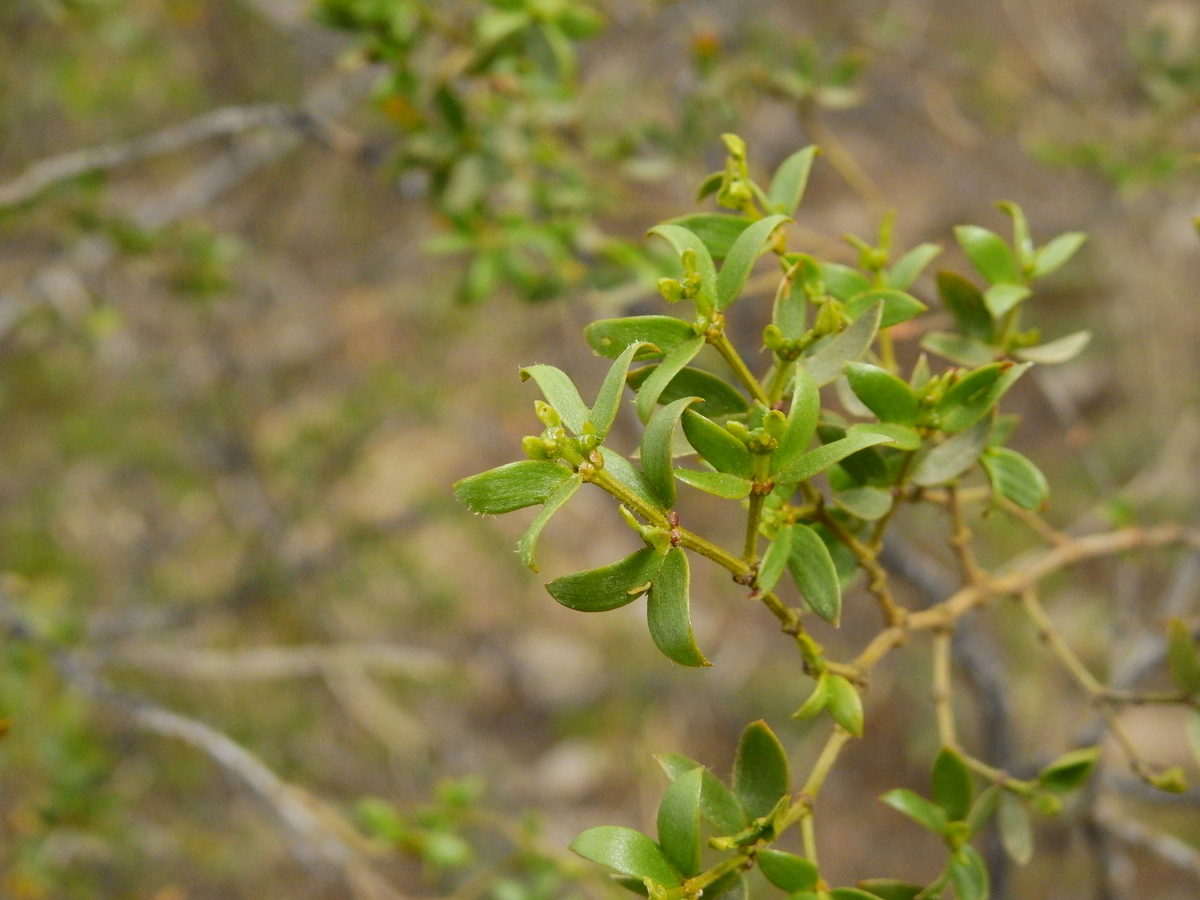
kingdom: Plantae
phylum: Tracheophyta
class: Magnoliopsida
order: Zygophyllales
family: Zygophyllaceae
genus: Larrea
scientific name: Larrea divaricata
